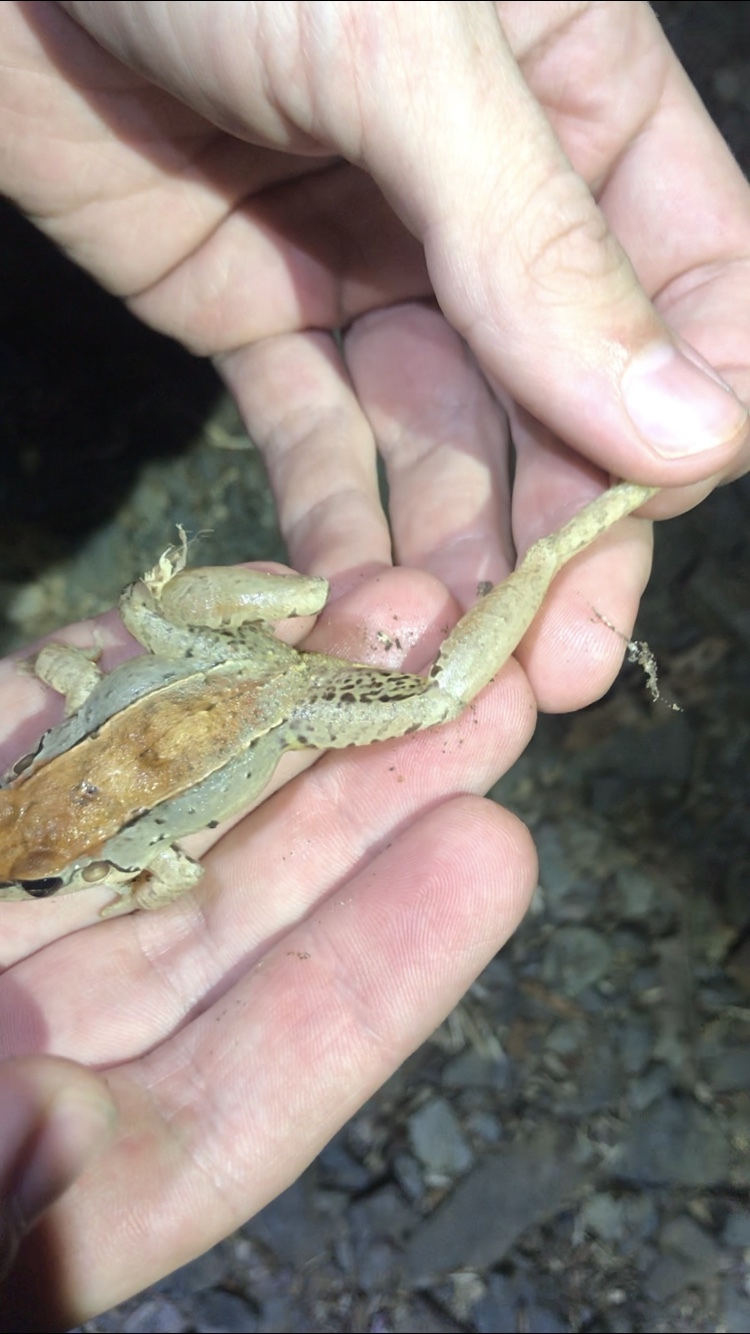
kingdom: Animalia
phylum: Chordata
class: Amphibia
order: Anura
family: Leptodactylidae
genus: Leptodactylus
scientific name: Leptodactylus poecilochilus
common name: Turbo white-lipped frog
